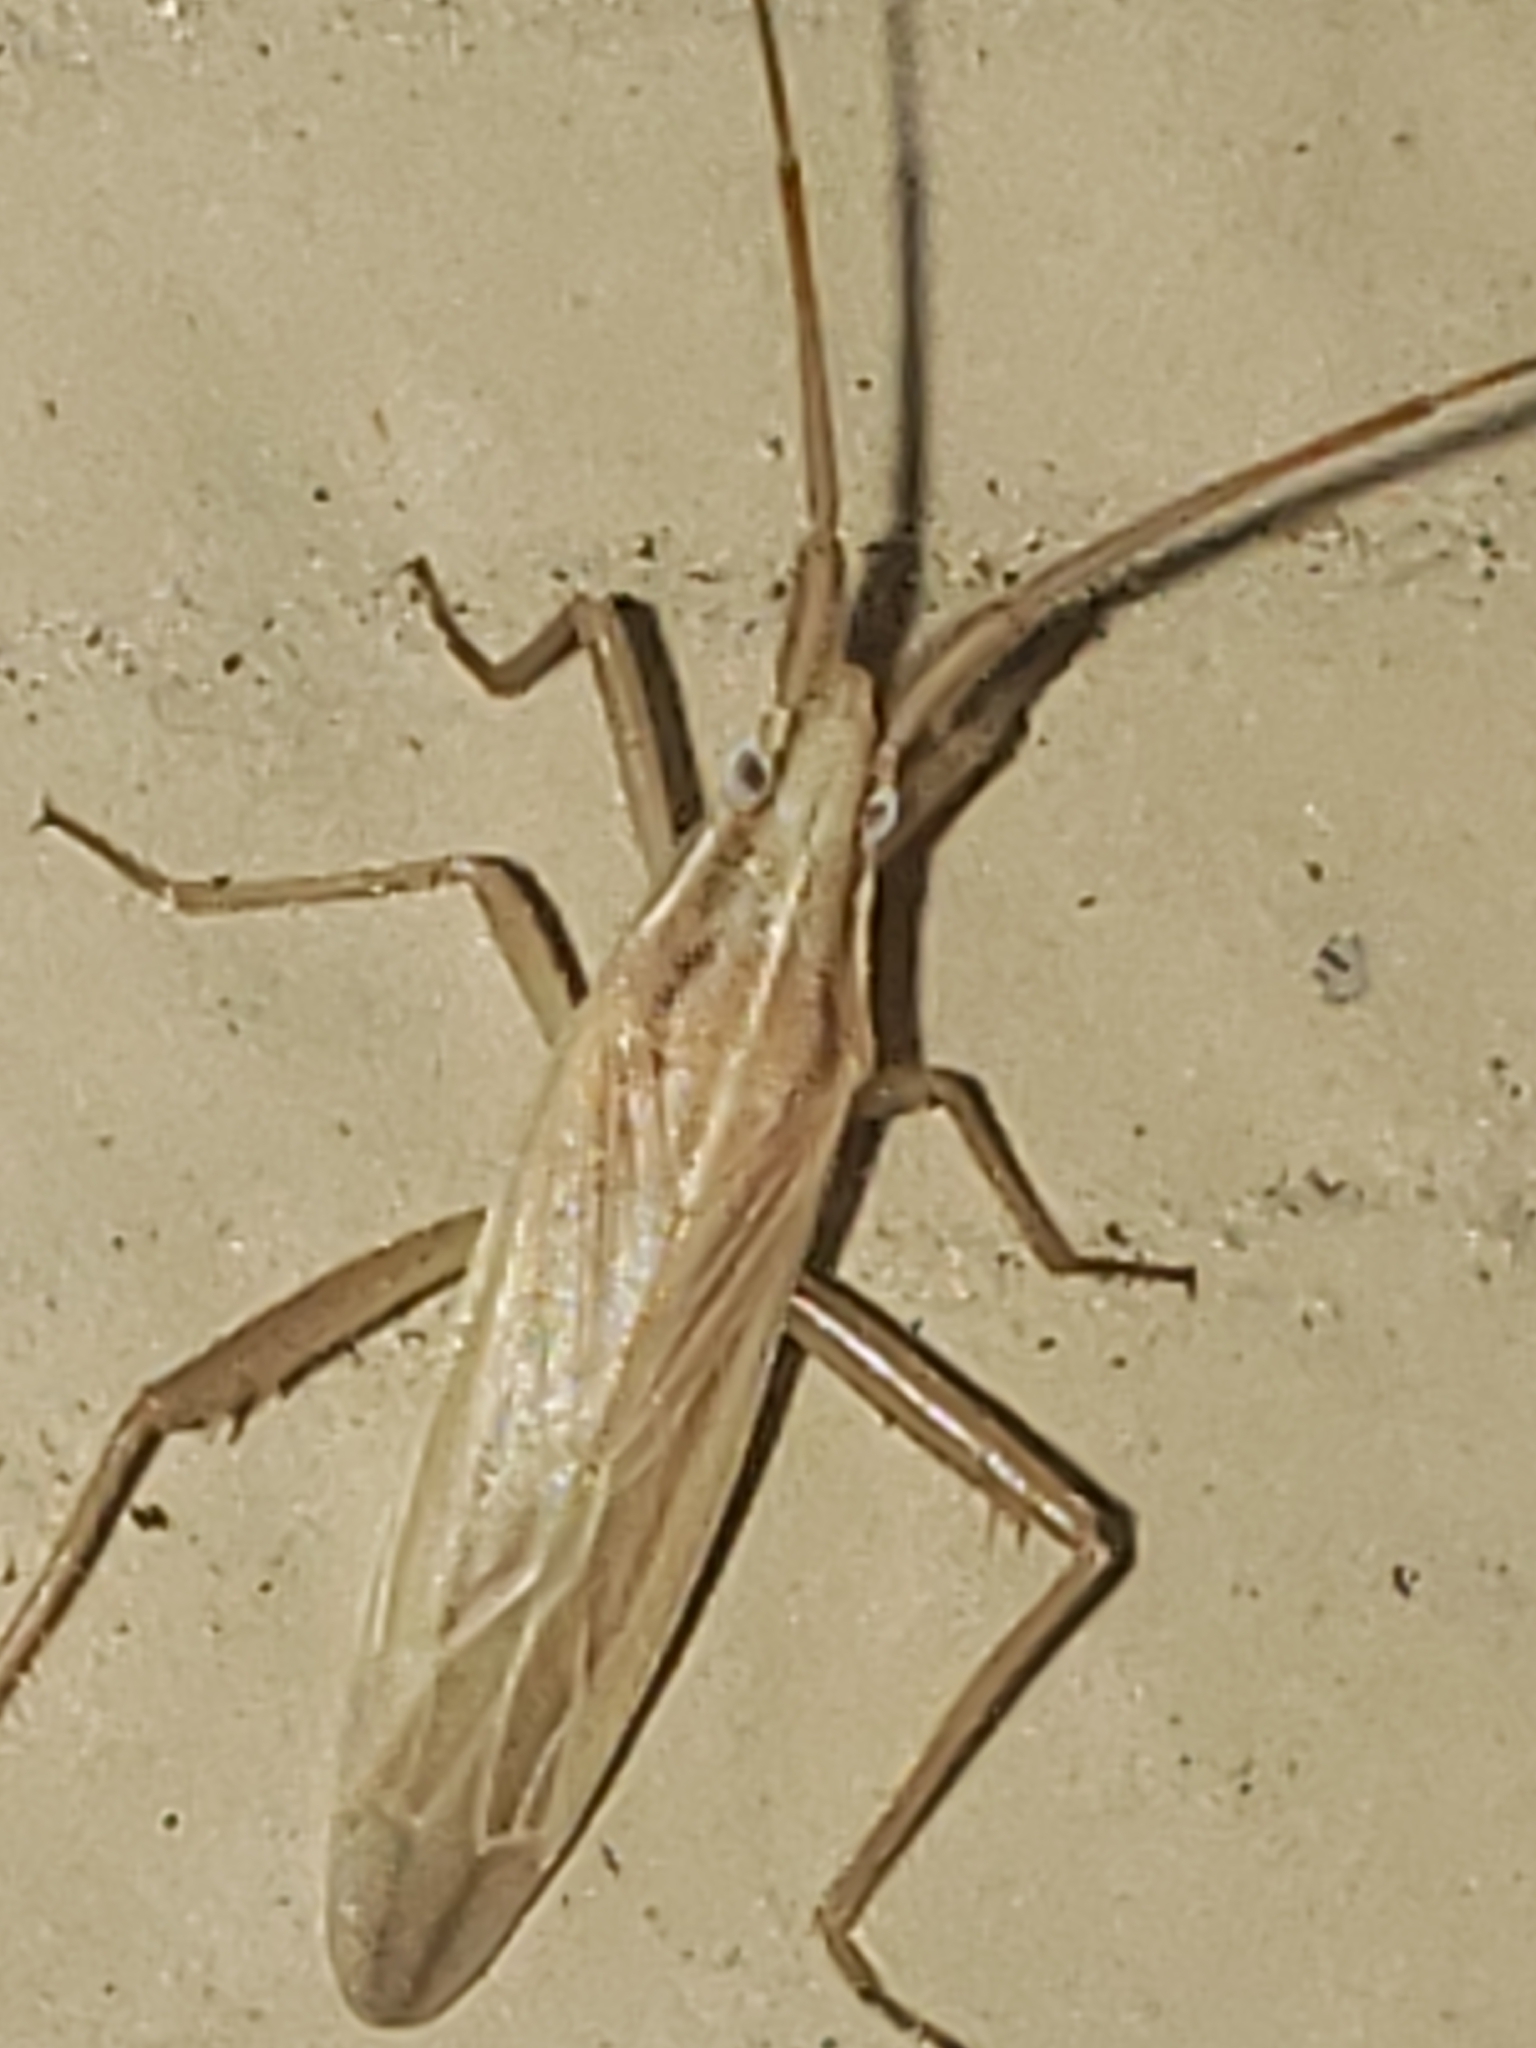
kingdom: Animalia
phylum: Arthropoda
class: Insecta
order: Hemiptera
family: Miridae
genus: Stenodema
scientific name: Stenodema trispinosa
